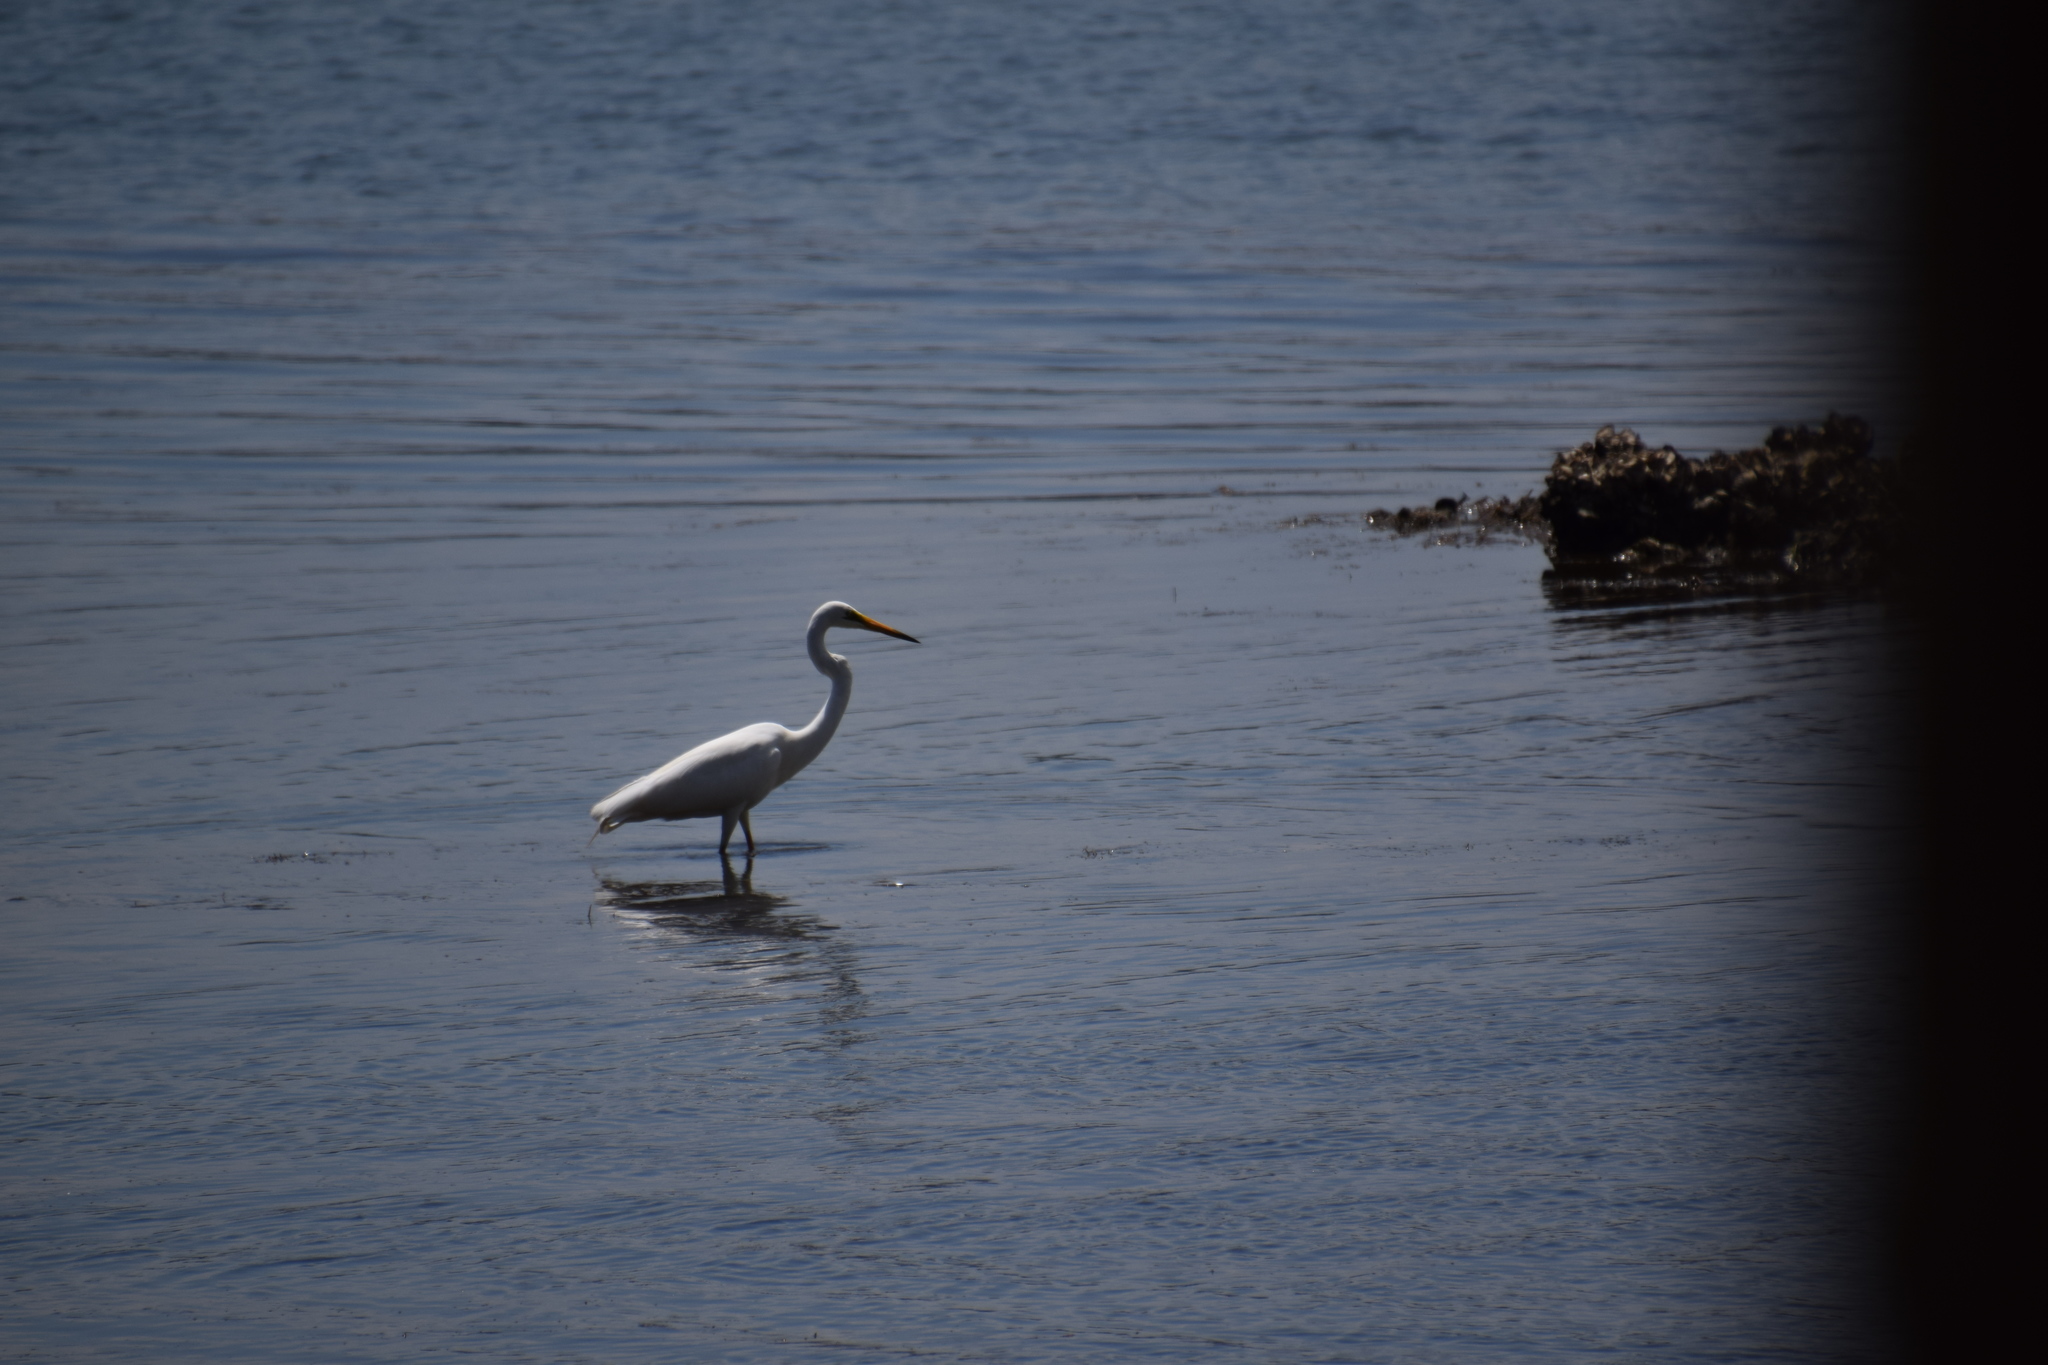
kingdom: Animalia
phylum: Chordata
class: Aves
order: Pelecaniformes
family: Ardeidae
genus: Ardea
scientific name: Ardea alba
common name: Great egret
